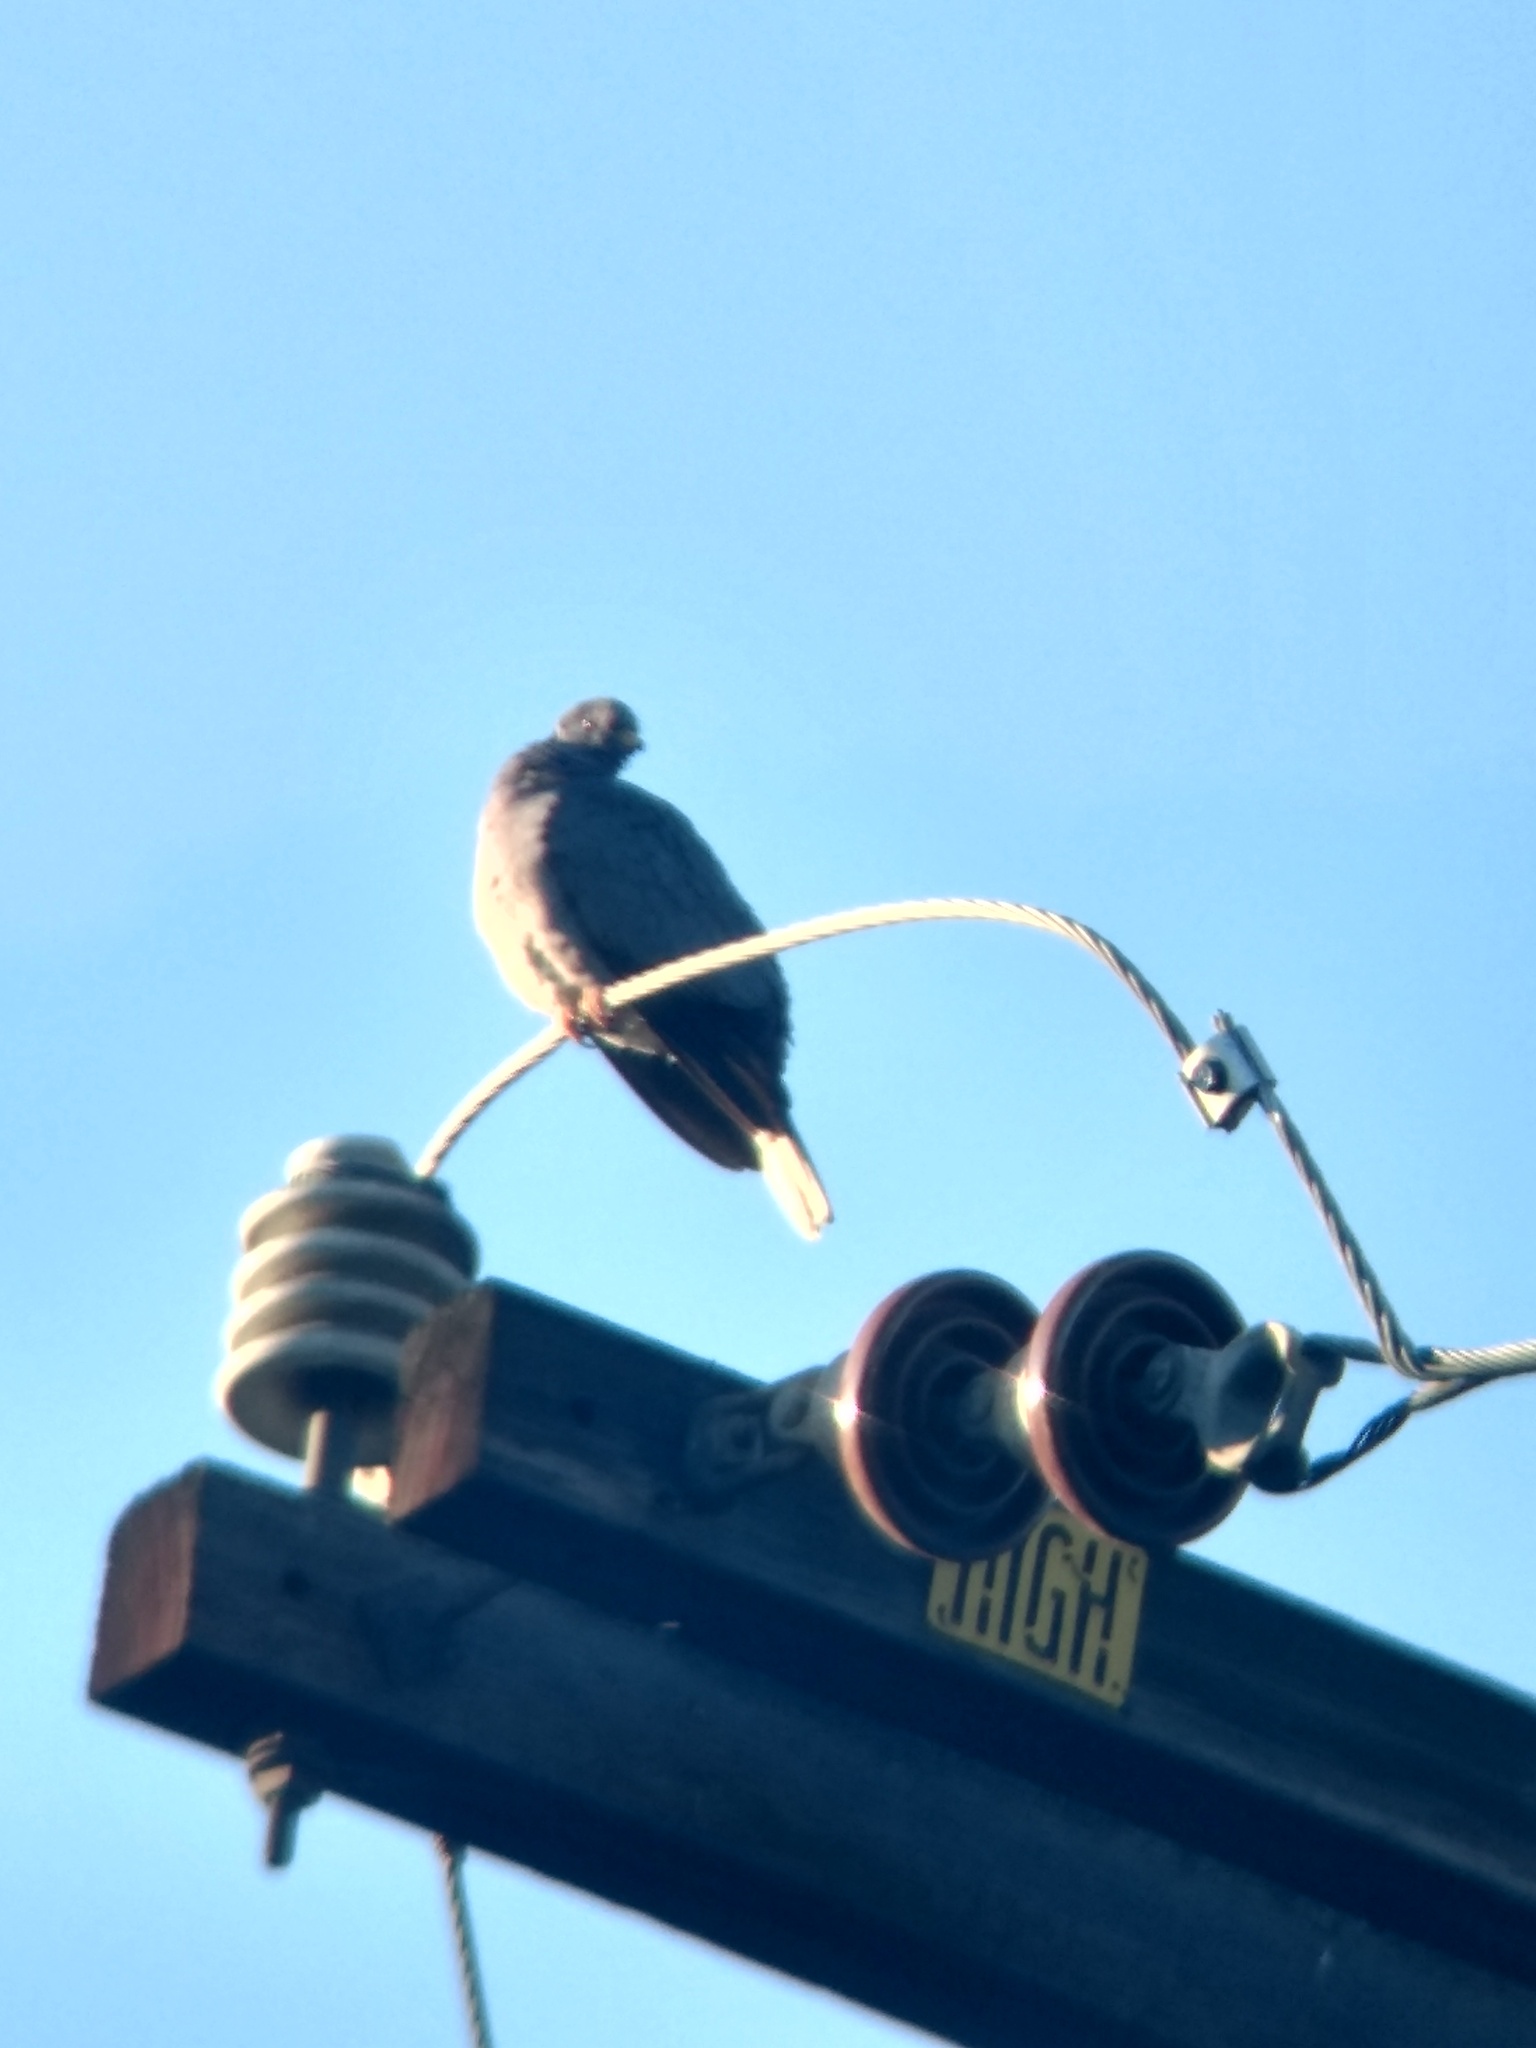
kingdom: Animalia
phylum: Chordata
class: Aves
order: Columbiformes
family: Columbidae
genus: Patagioenas
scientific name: Patagioenas fasciata
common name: Band-tailed pigeon
